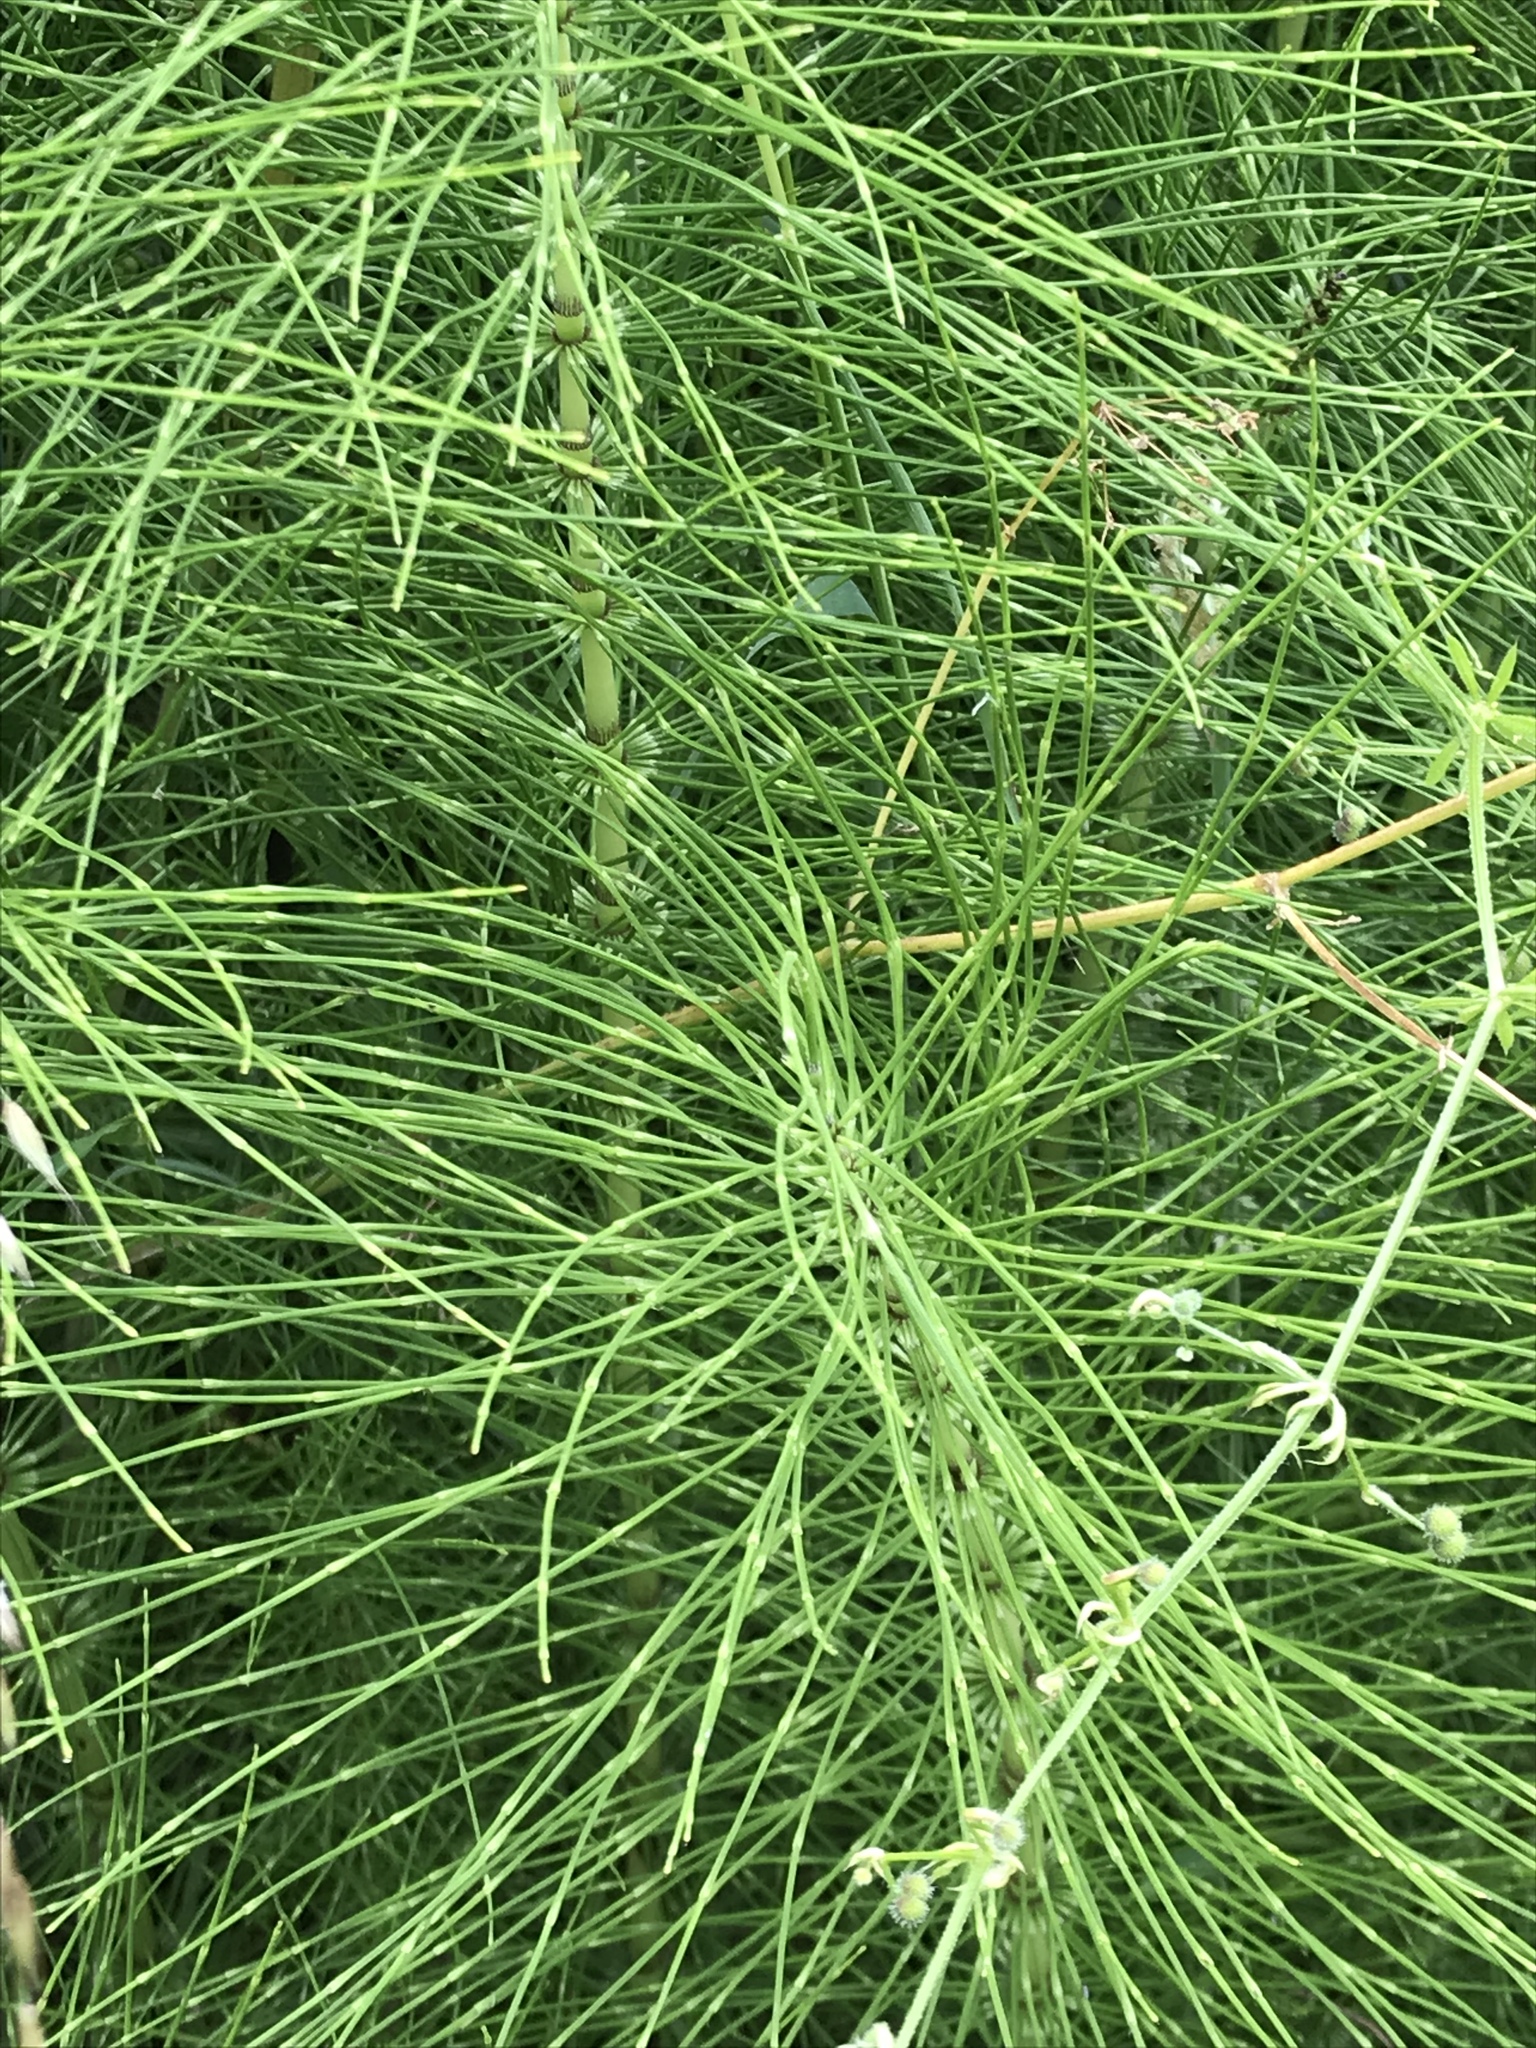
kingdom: Plantae
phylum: Tracheophyta
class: Polypodiopsida
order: Equisetales
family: Equisetaceae
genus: Equisetum
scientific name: Equisetum telmateia
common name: Great horsetail
